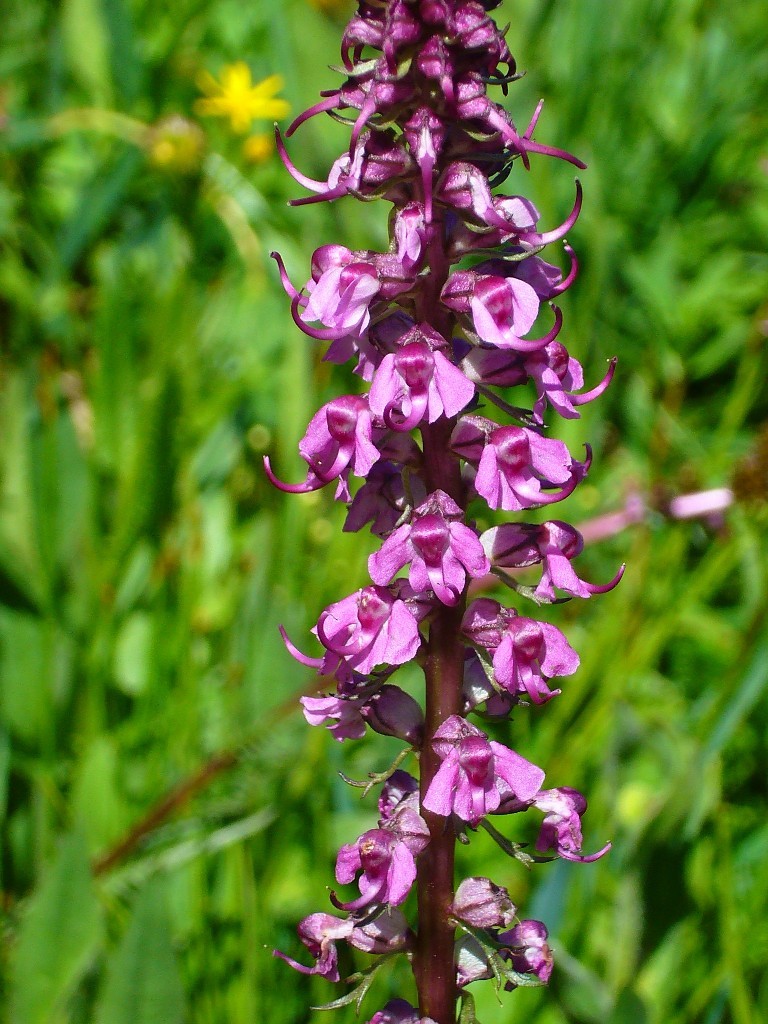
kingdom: Plantae
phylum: Tracheophyta
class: Magnoliopsida
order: Lamiales
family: Orobanchaceae
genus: Pedicularis
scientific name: Pedicularis groenlandica
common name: Elephant's-head
